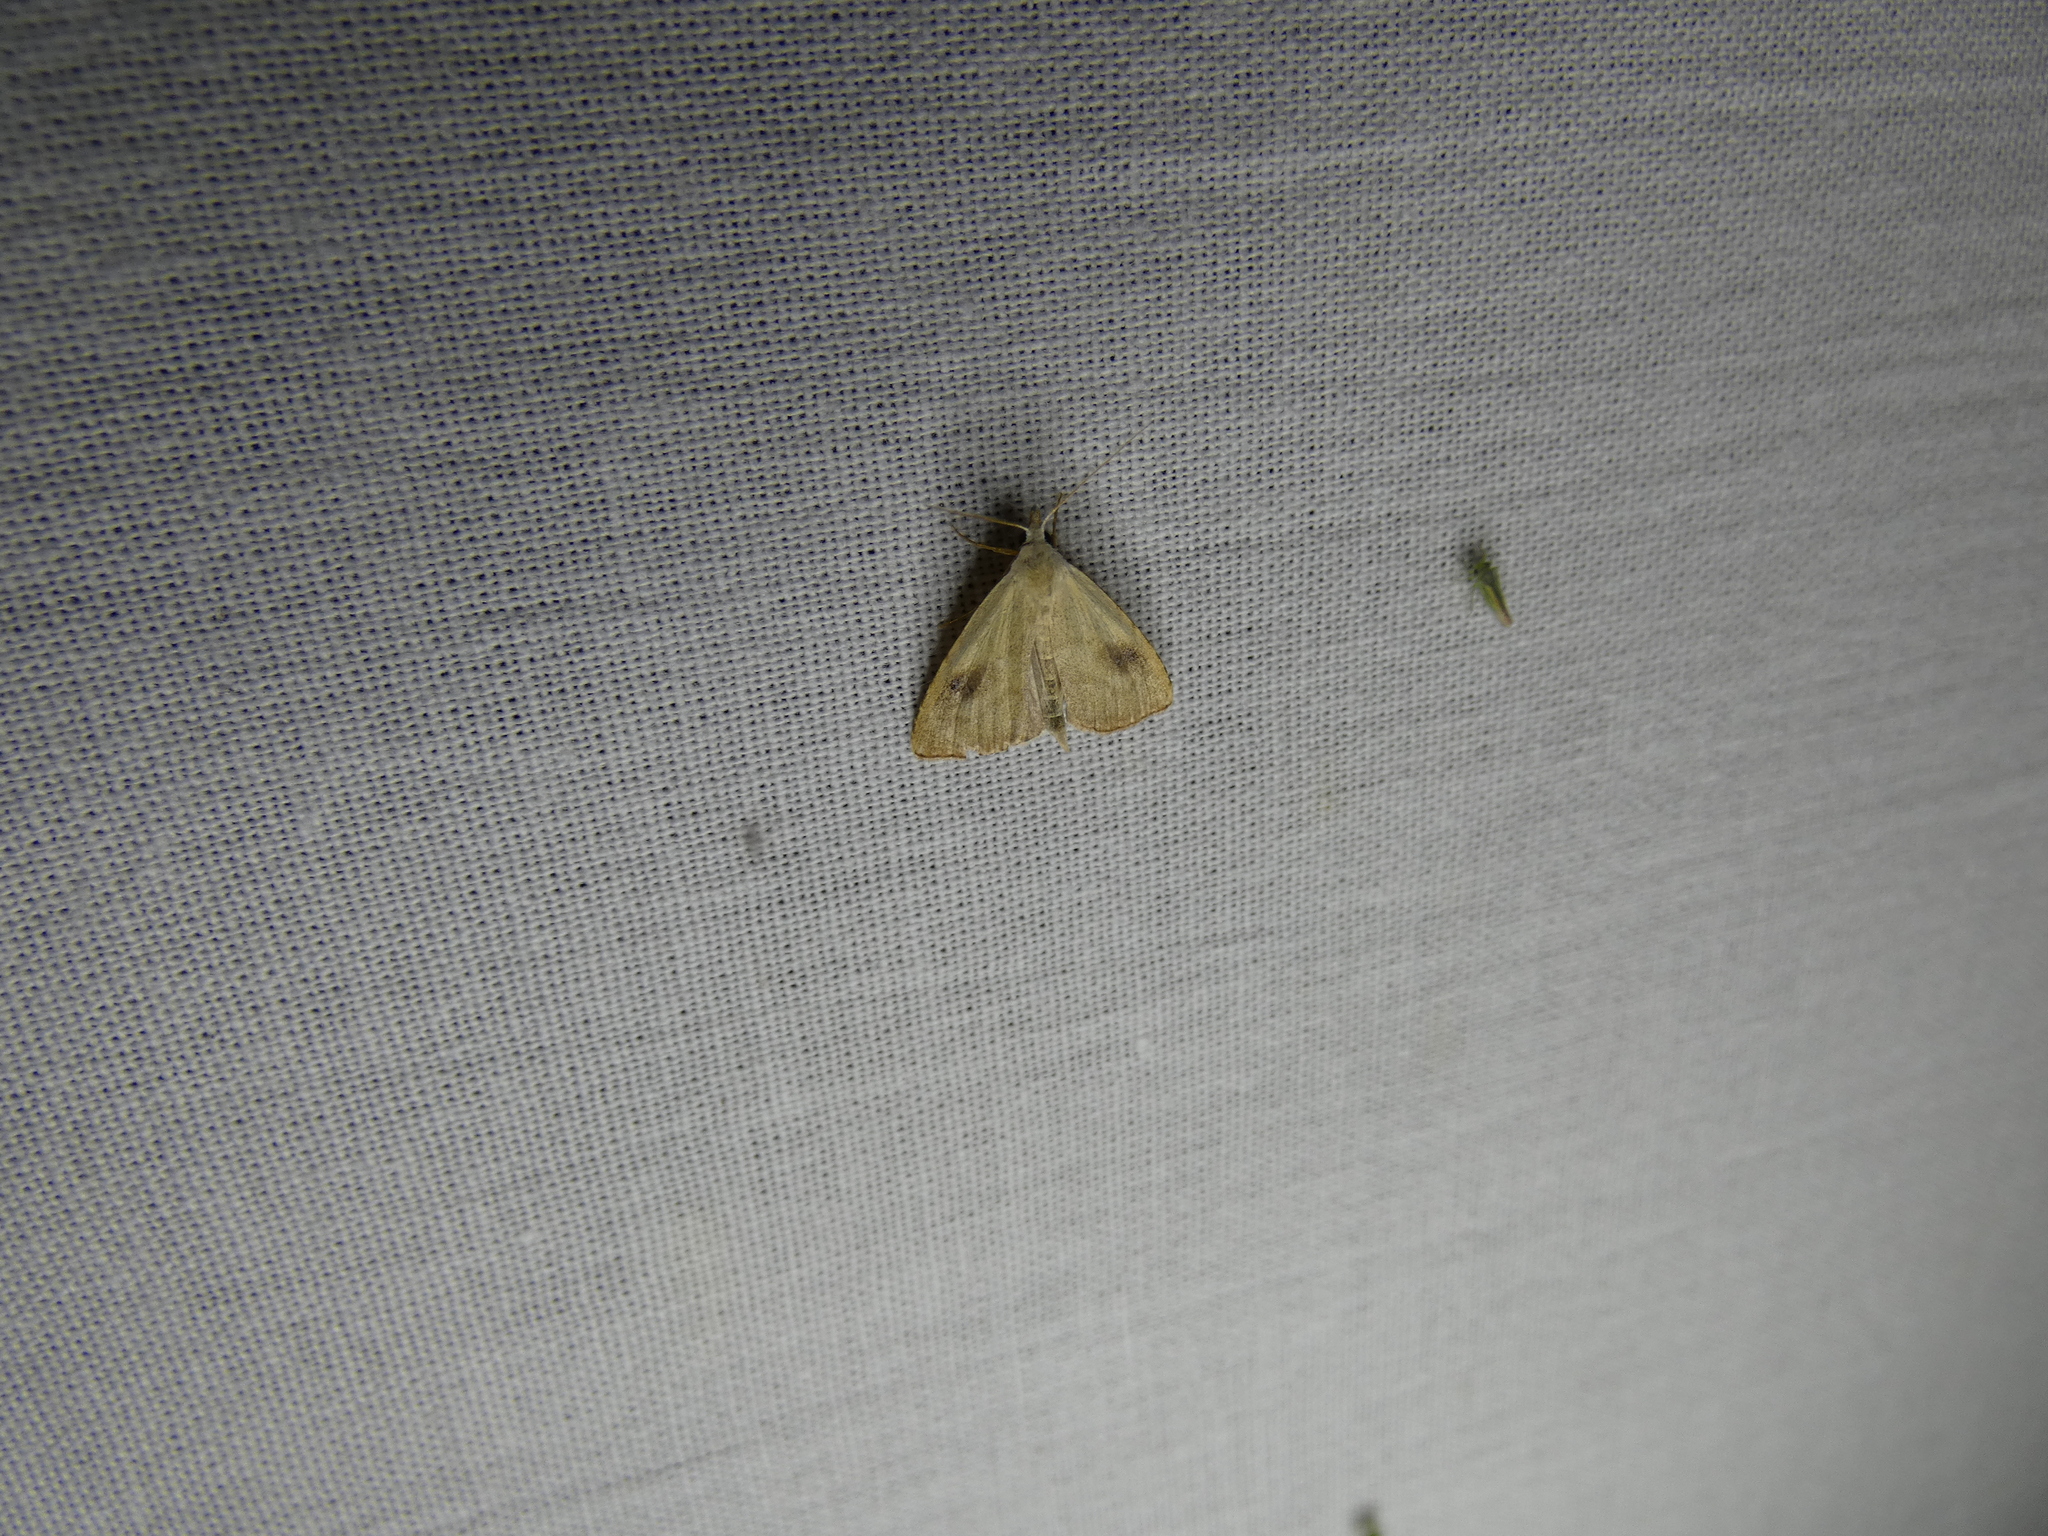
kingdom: Animalia
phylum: Arthropoda
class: Insecta
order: Lepidoptera
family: Erebidae
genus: Rivula
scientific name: Rivula sericealis
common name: Straw dot
